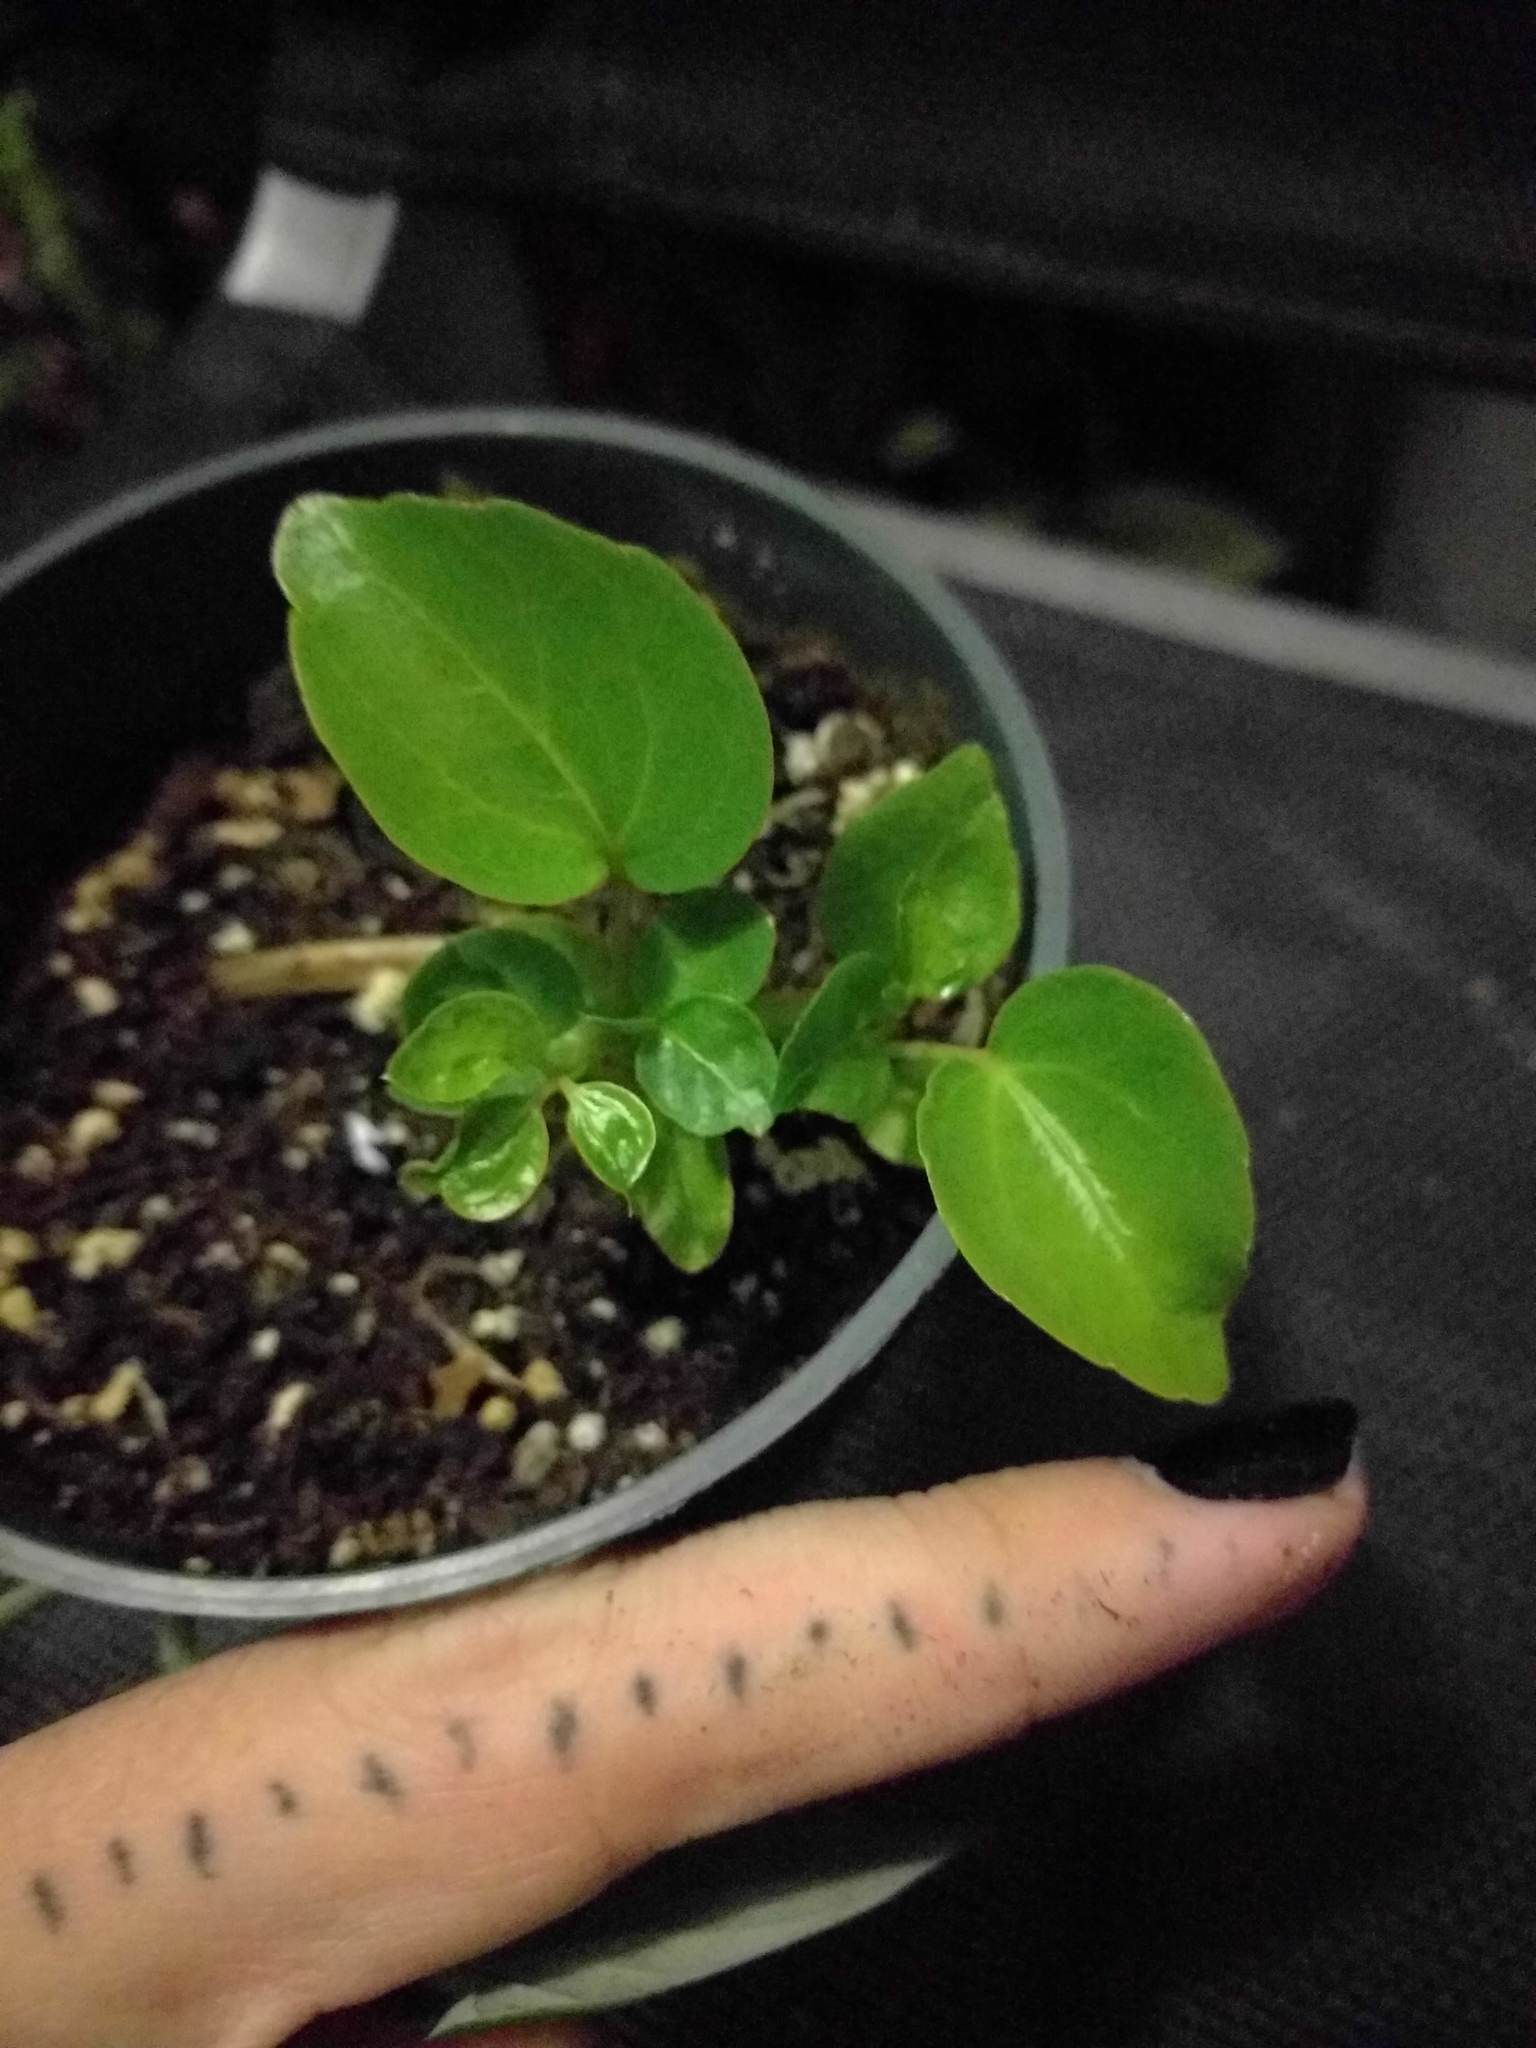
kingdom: Plantae
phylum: Tracheophyta
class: Magnoliopsida
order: Apiales
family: Araliaceae
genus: Heptapleurum
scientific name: Heptapleurum actinophyllum
